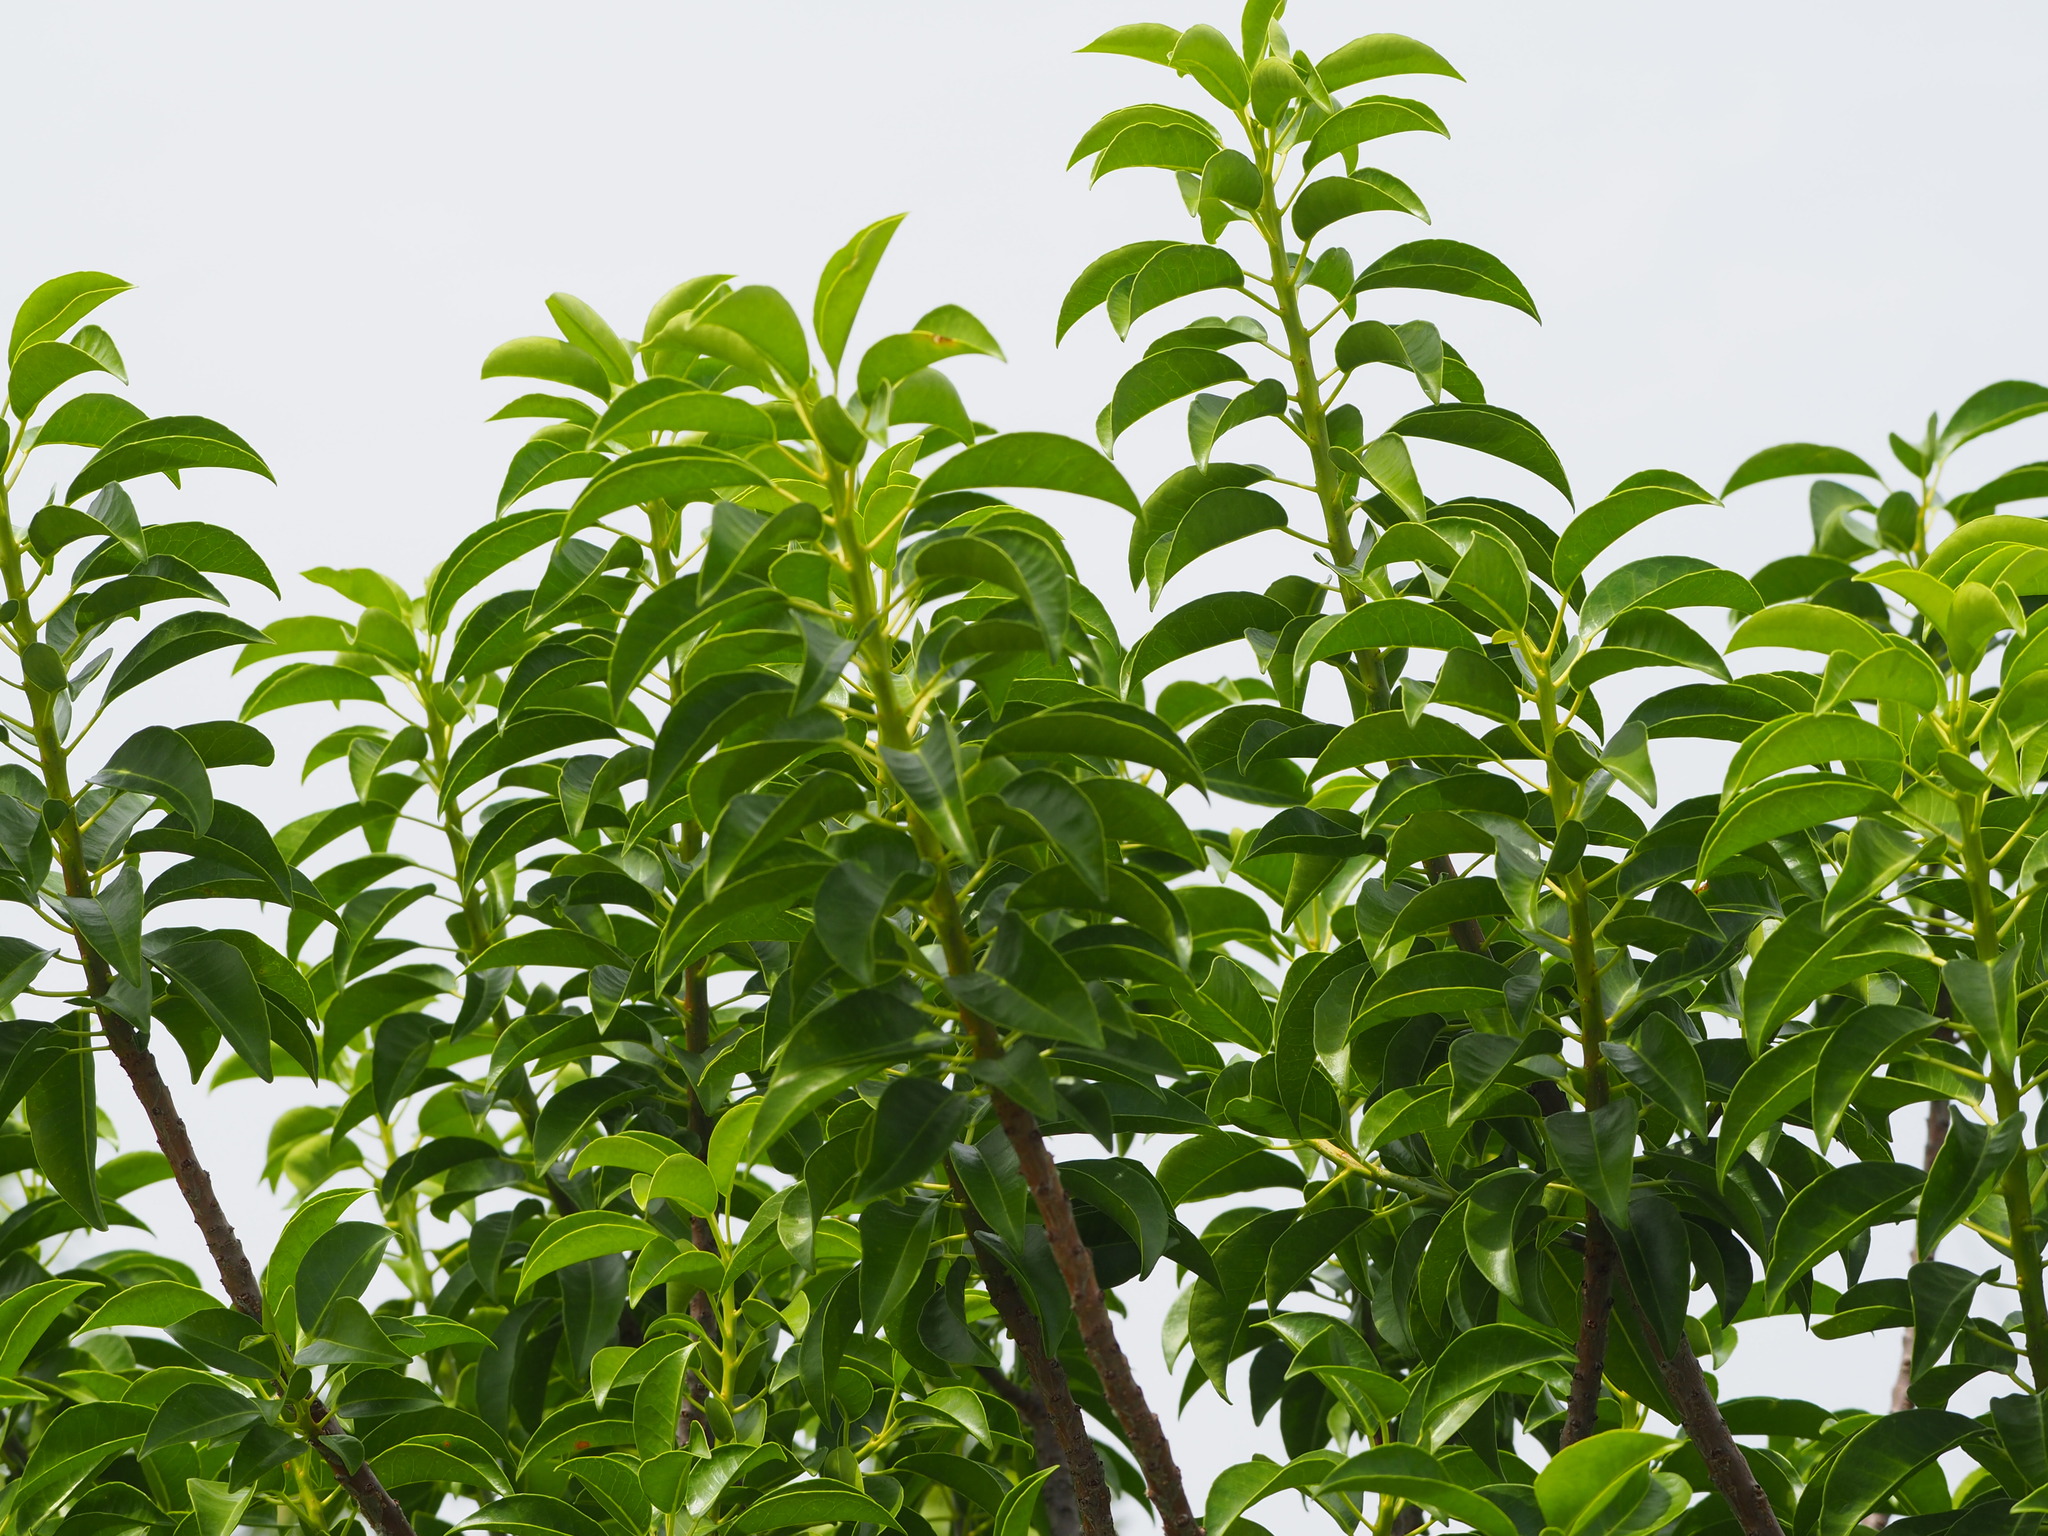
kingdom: Plantae
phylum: Tracheophyta
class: Magnoliopsida
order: Malpighiales
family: Euphorbiaceae
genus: Excoecaria
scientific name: Excoecaria agallocha
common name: River poisontree
